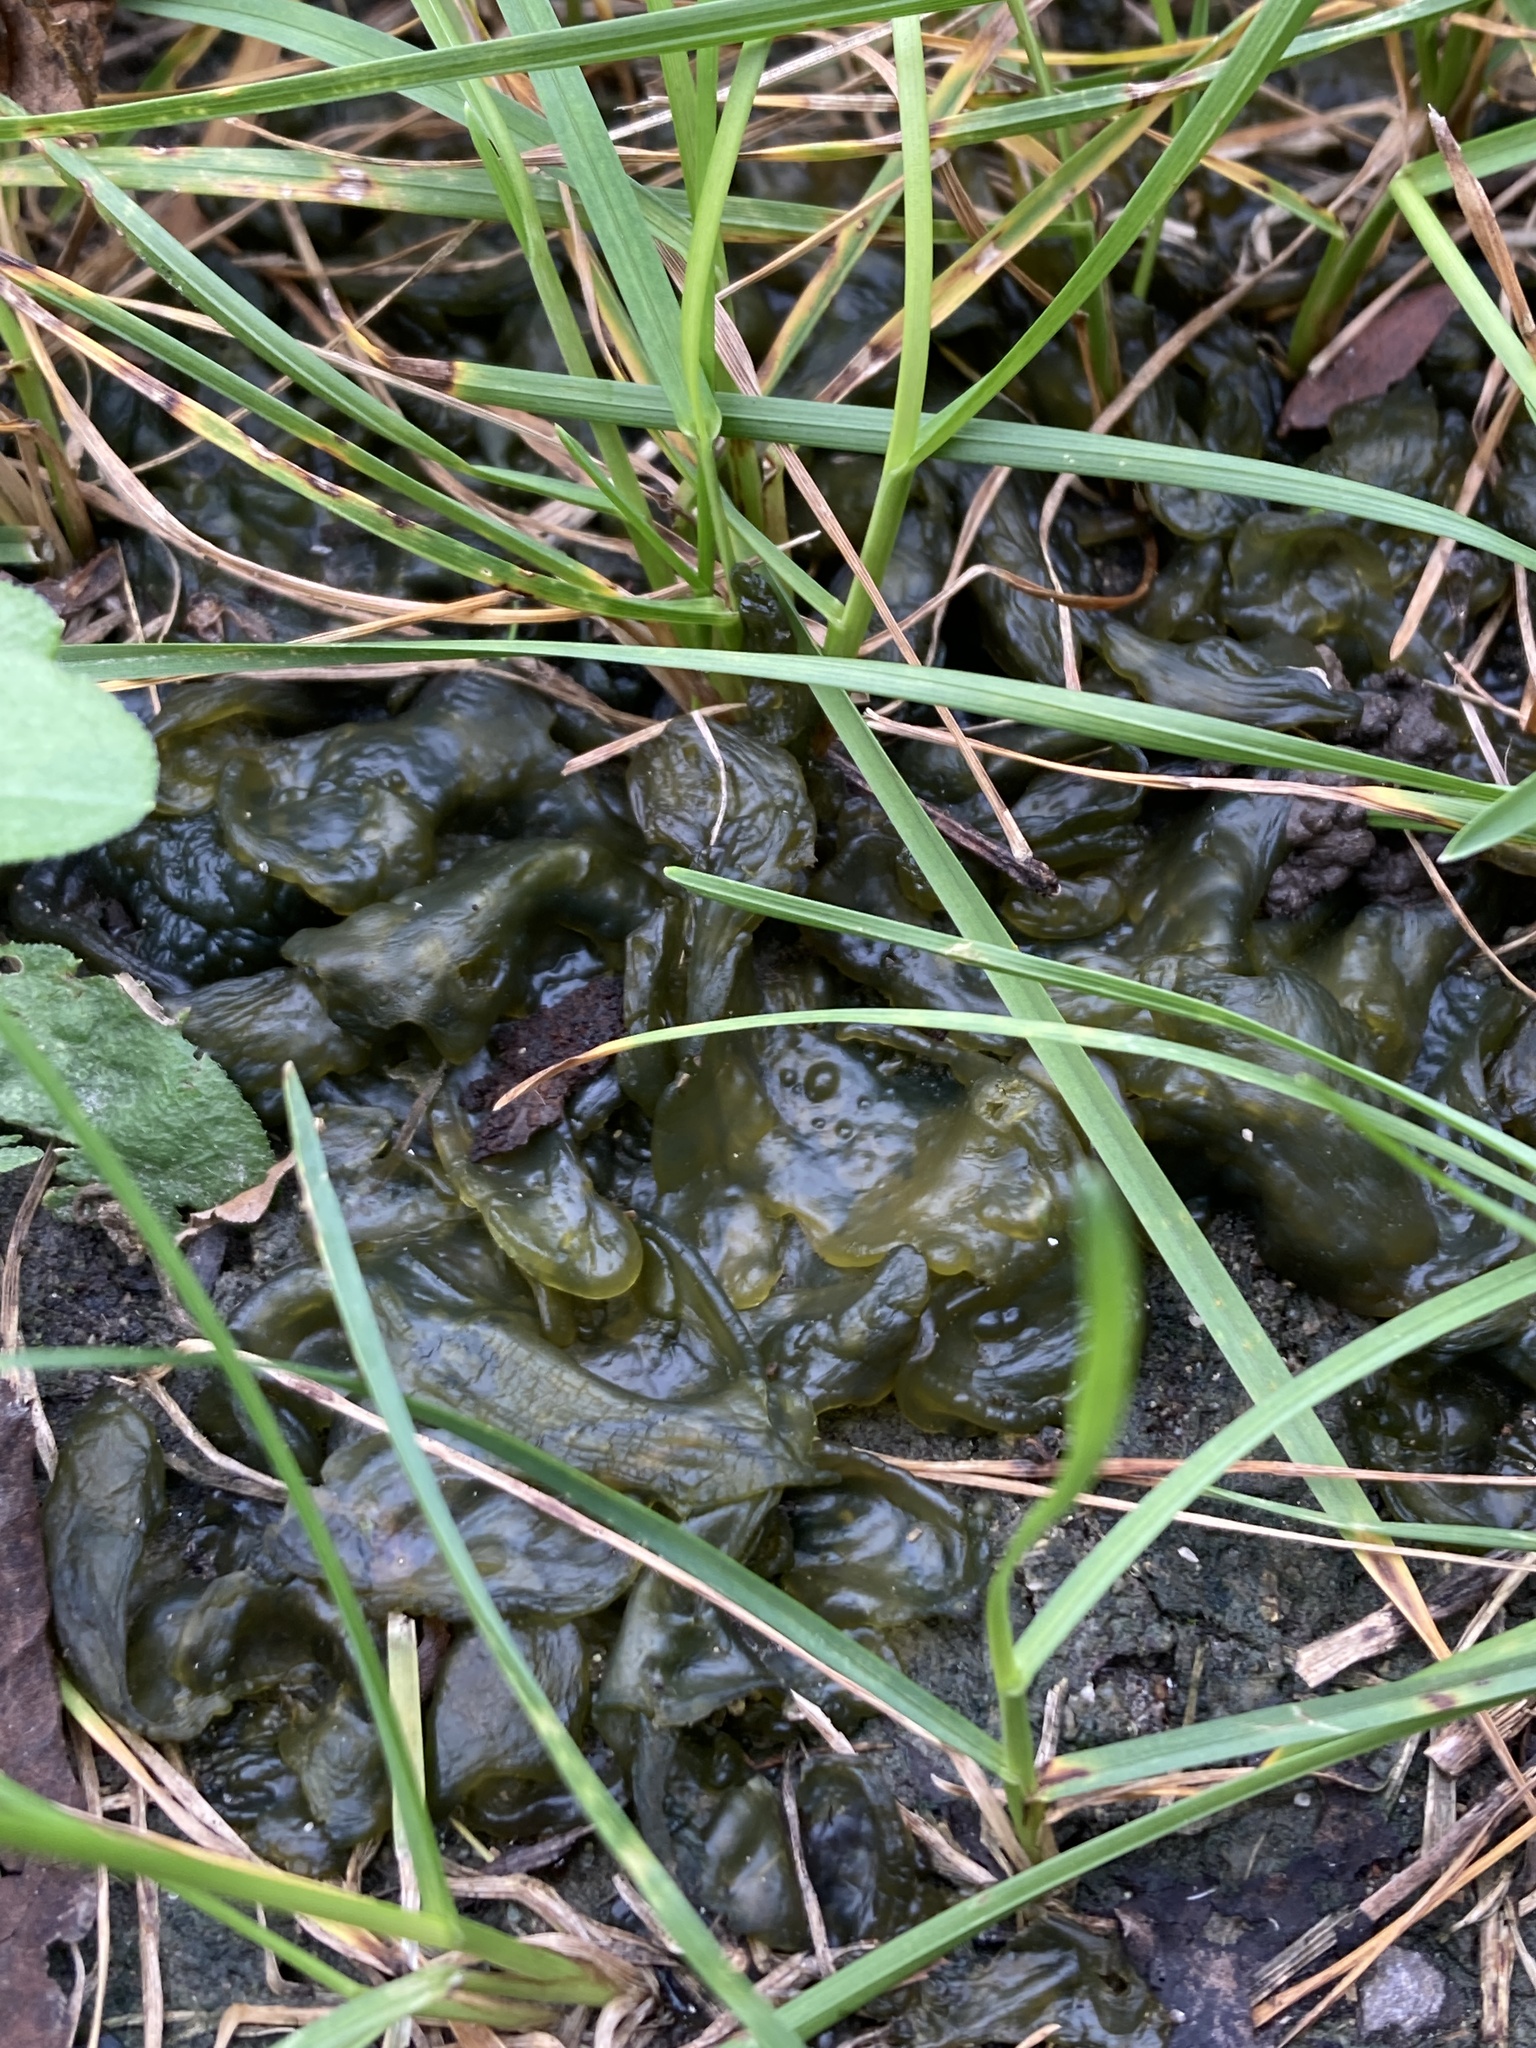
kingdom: Bacteria
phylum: Cyanobacteria
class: Cyanobacteriia
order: Cyanobacteriales
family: Nostocaceae
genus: Nostoc
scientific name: Nostoc commune
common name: Star jelly
